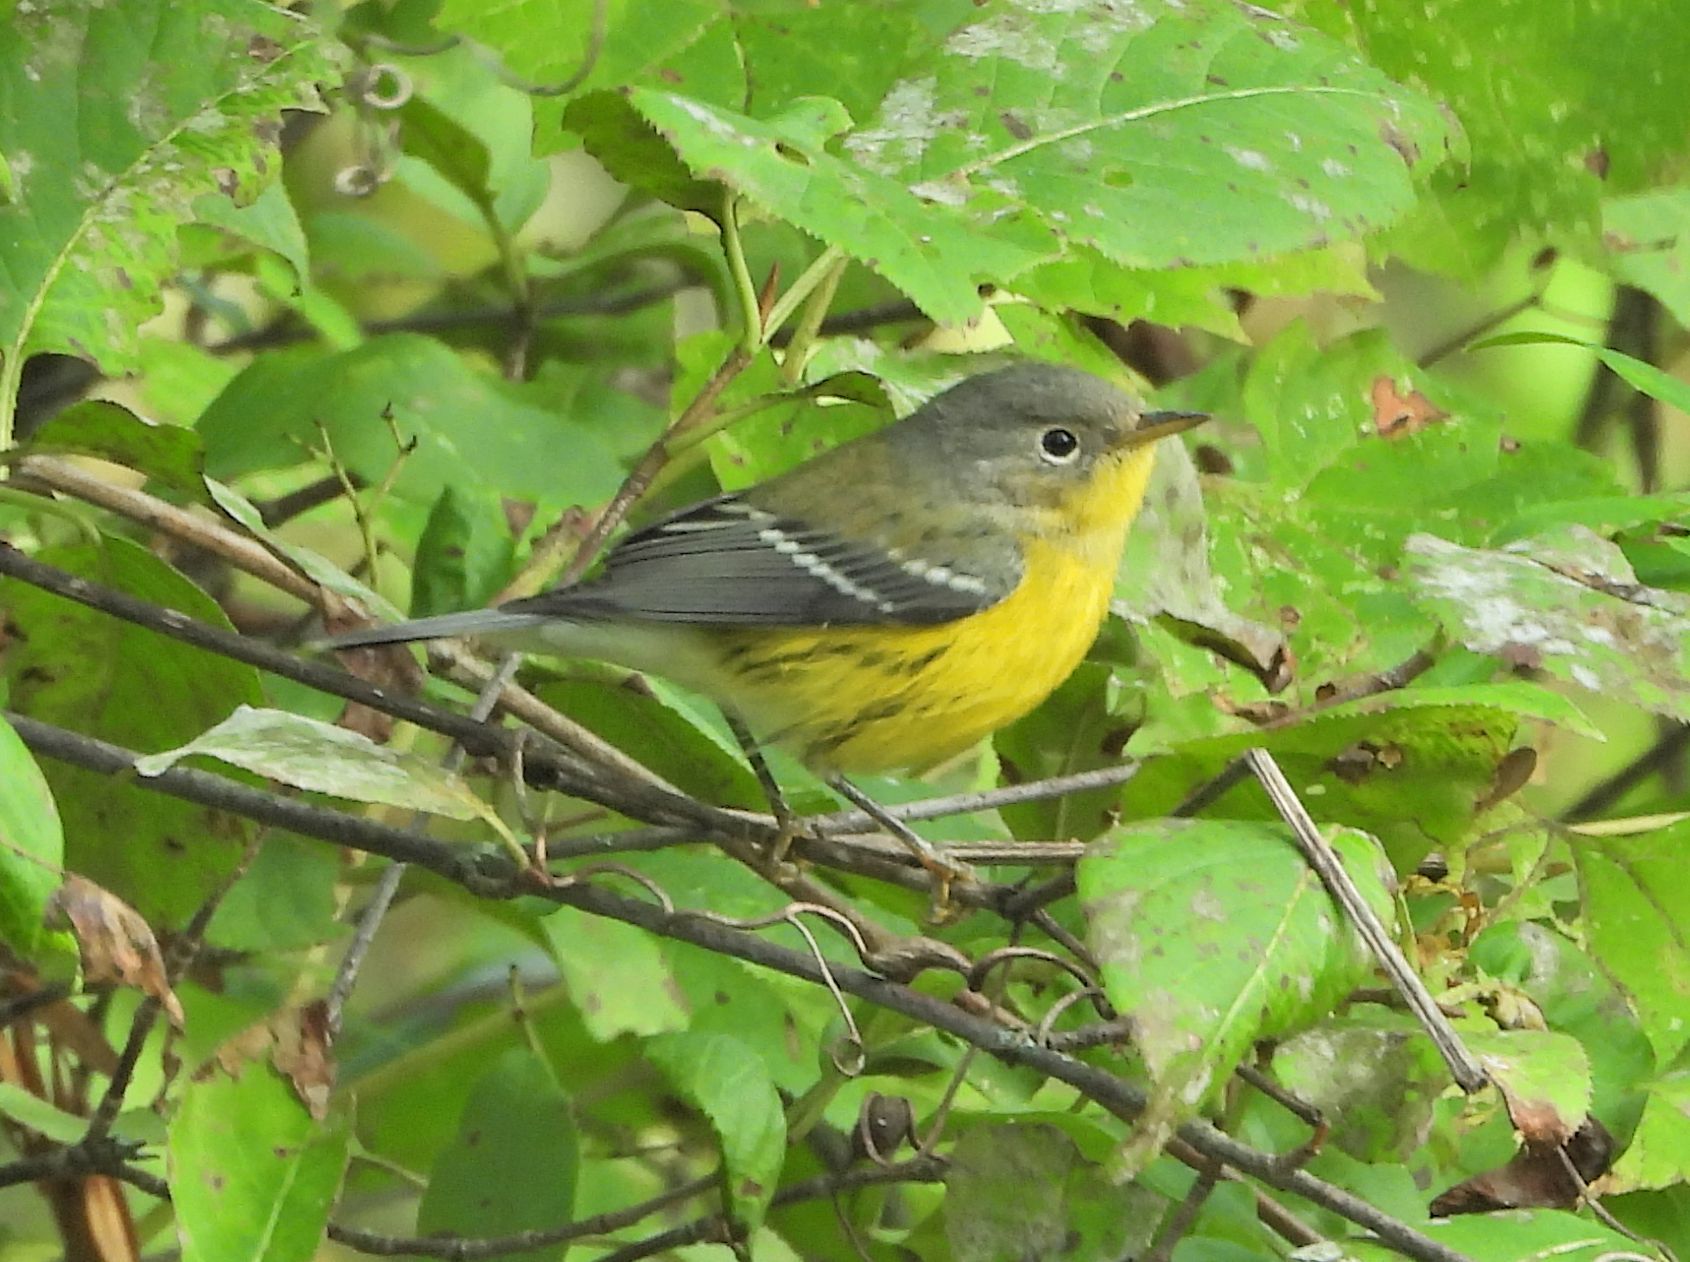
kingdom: Animalia
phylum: Chordata
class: Aves
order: Passeriformes
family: Parulidae
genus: Setophaga
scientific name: Setophaga magnolia
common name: Magnolia warbler
